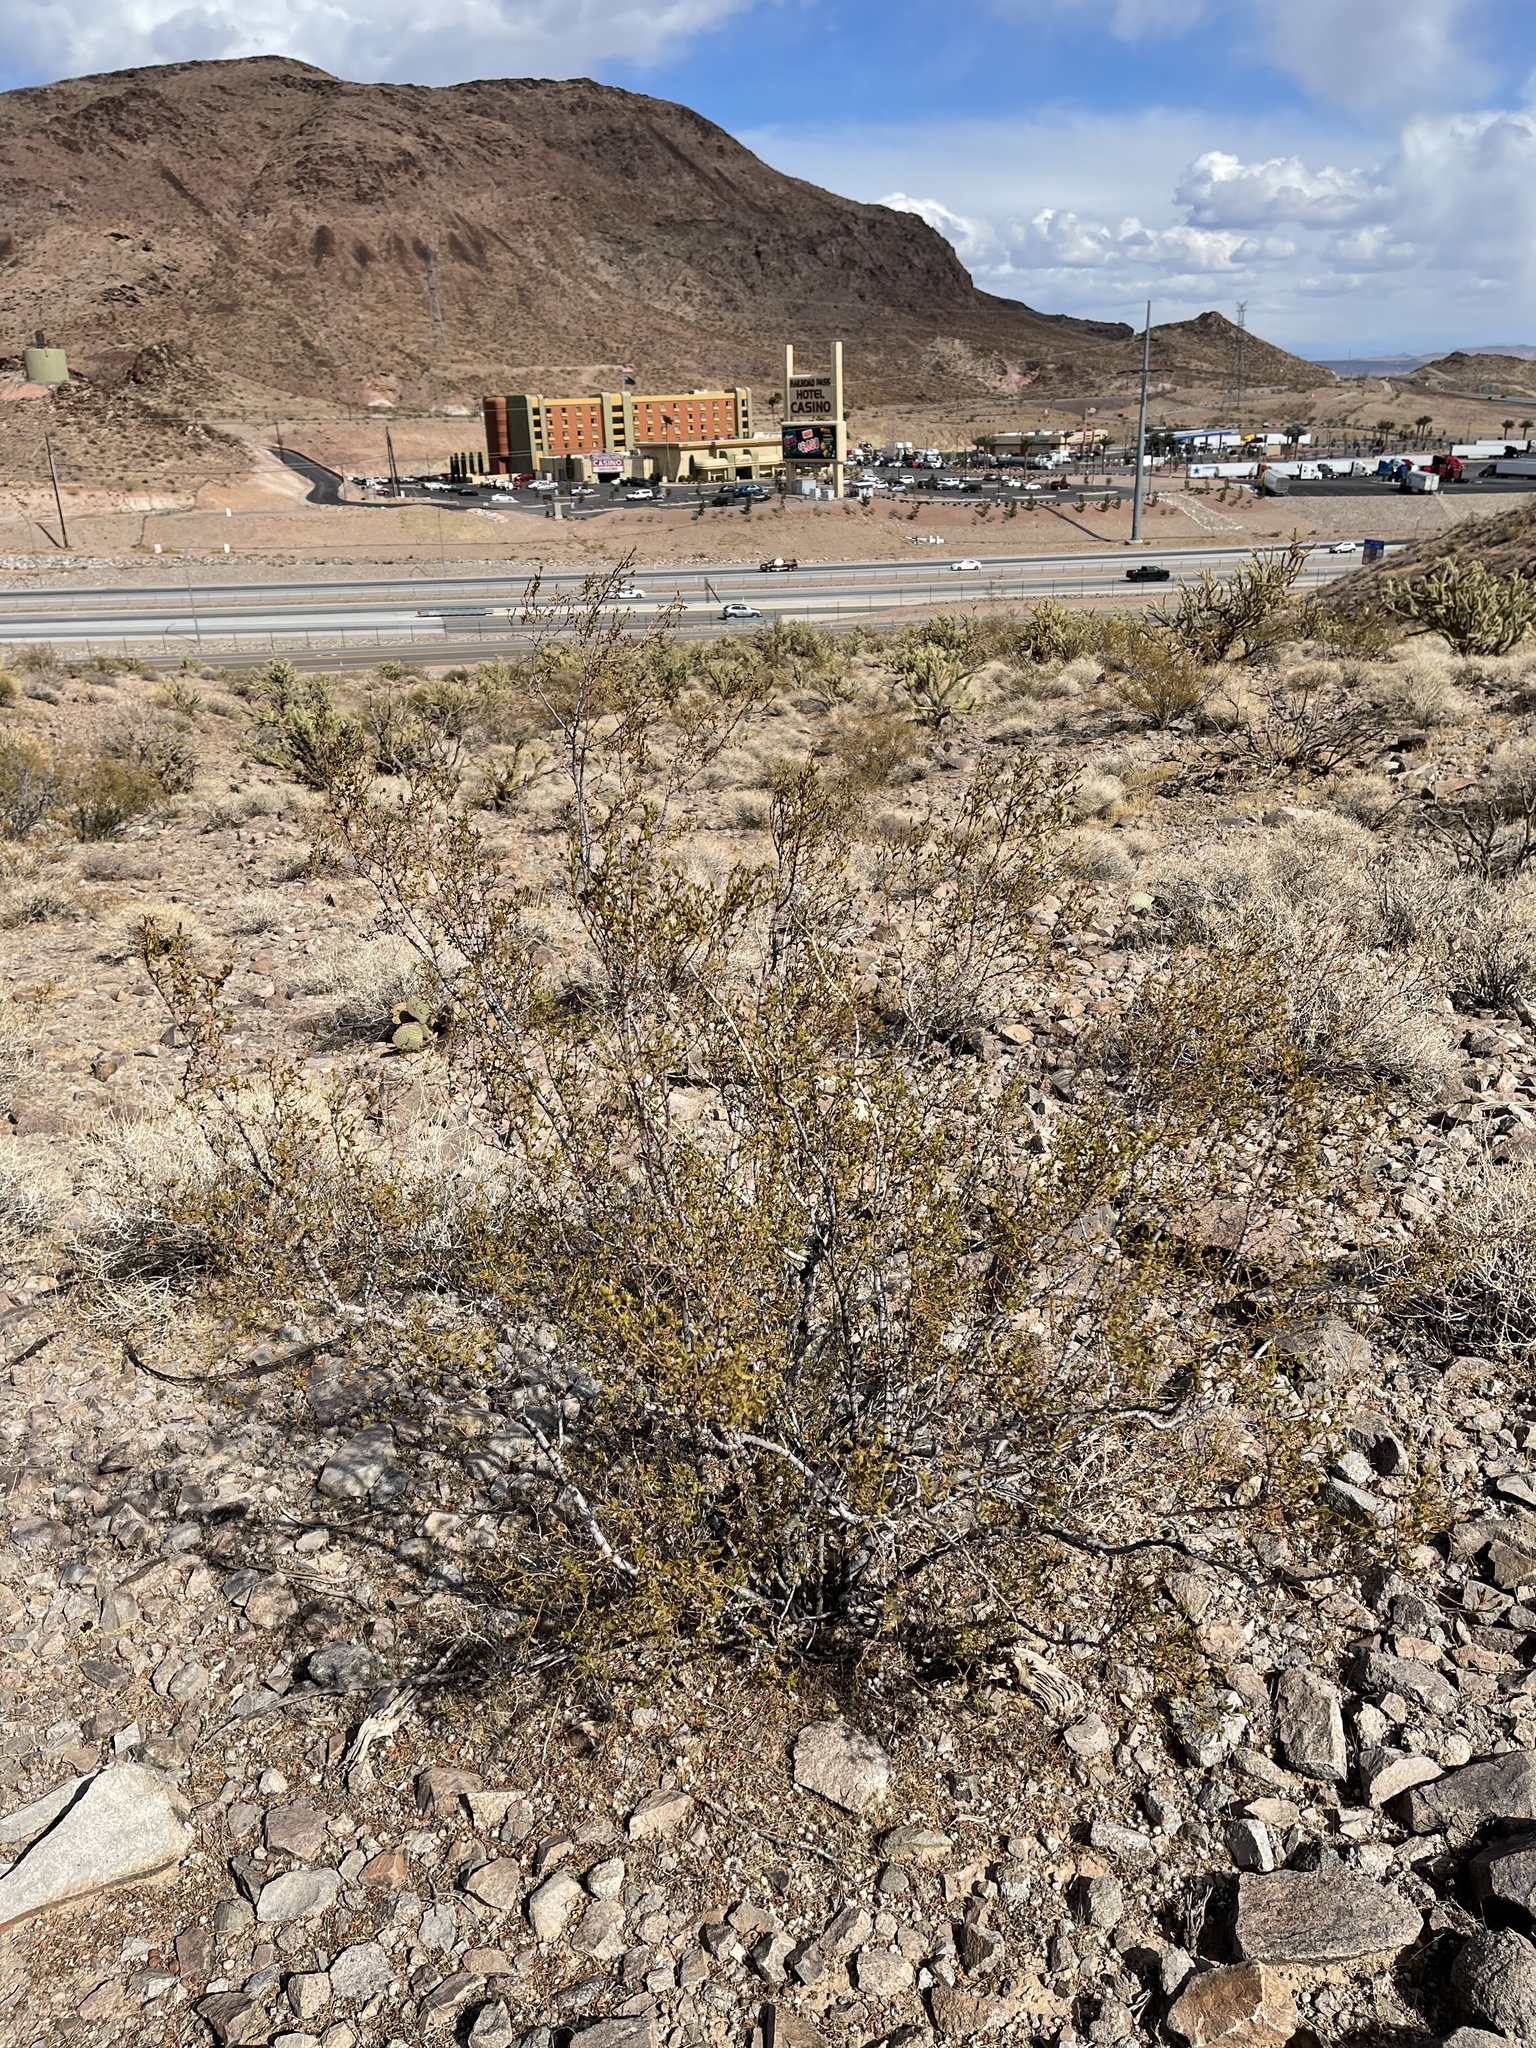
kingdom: Plantae
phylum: Tracheophyta
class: Magnoliopsida
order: Zygophyllales
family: Zygophyllaceae
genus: Larrea
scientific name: Larrea tridentata
